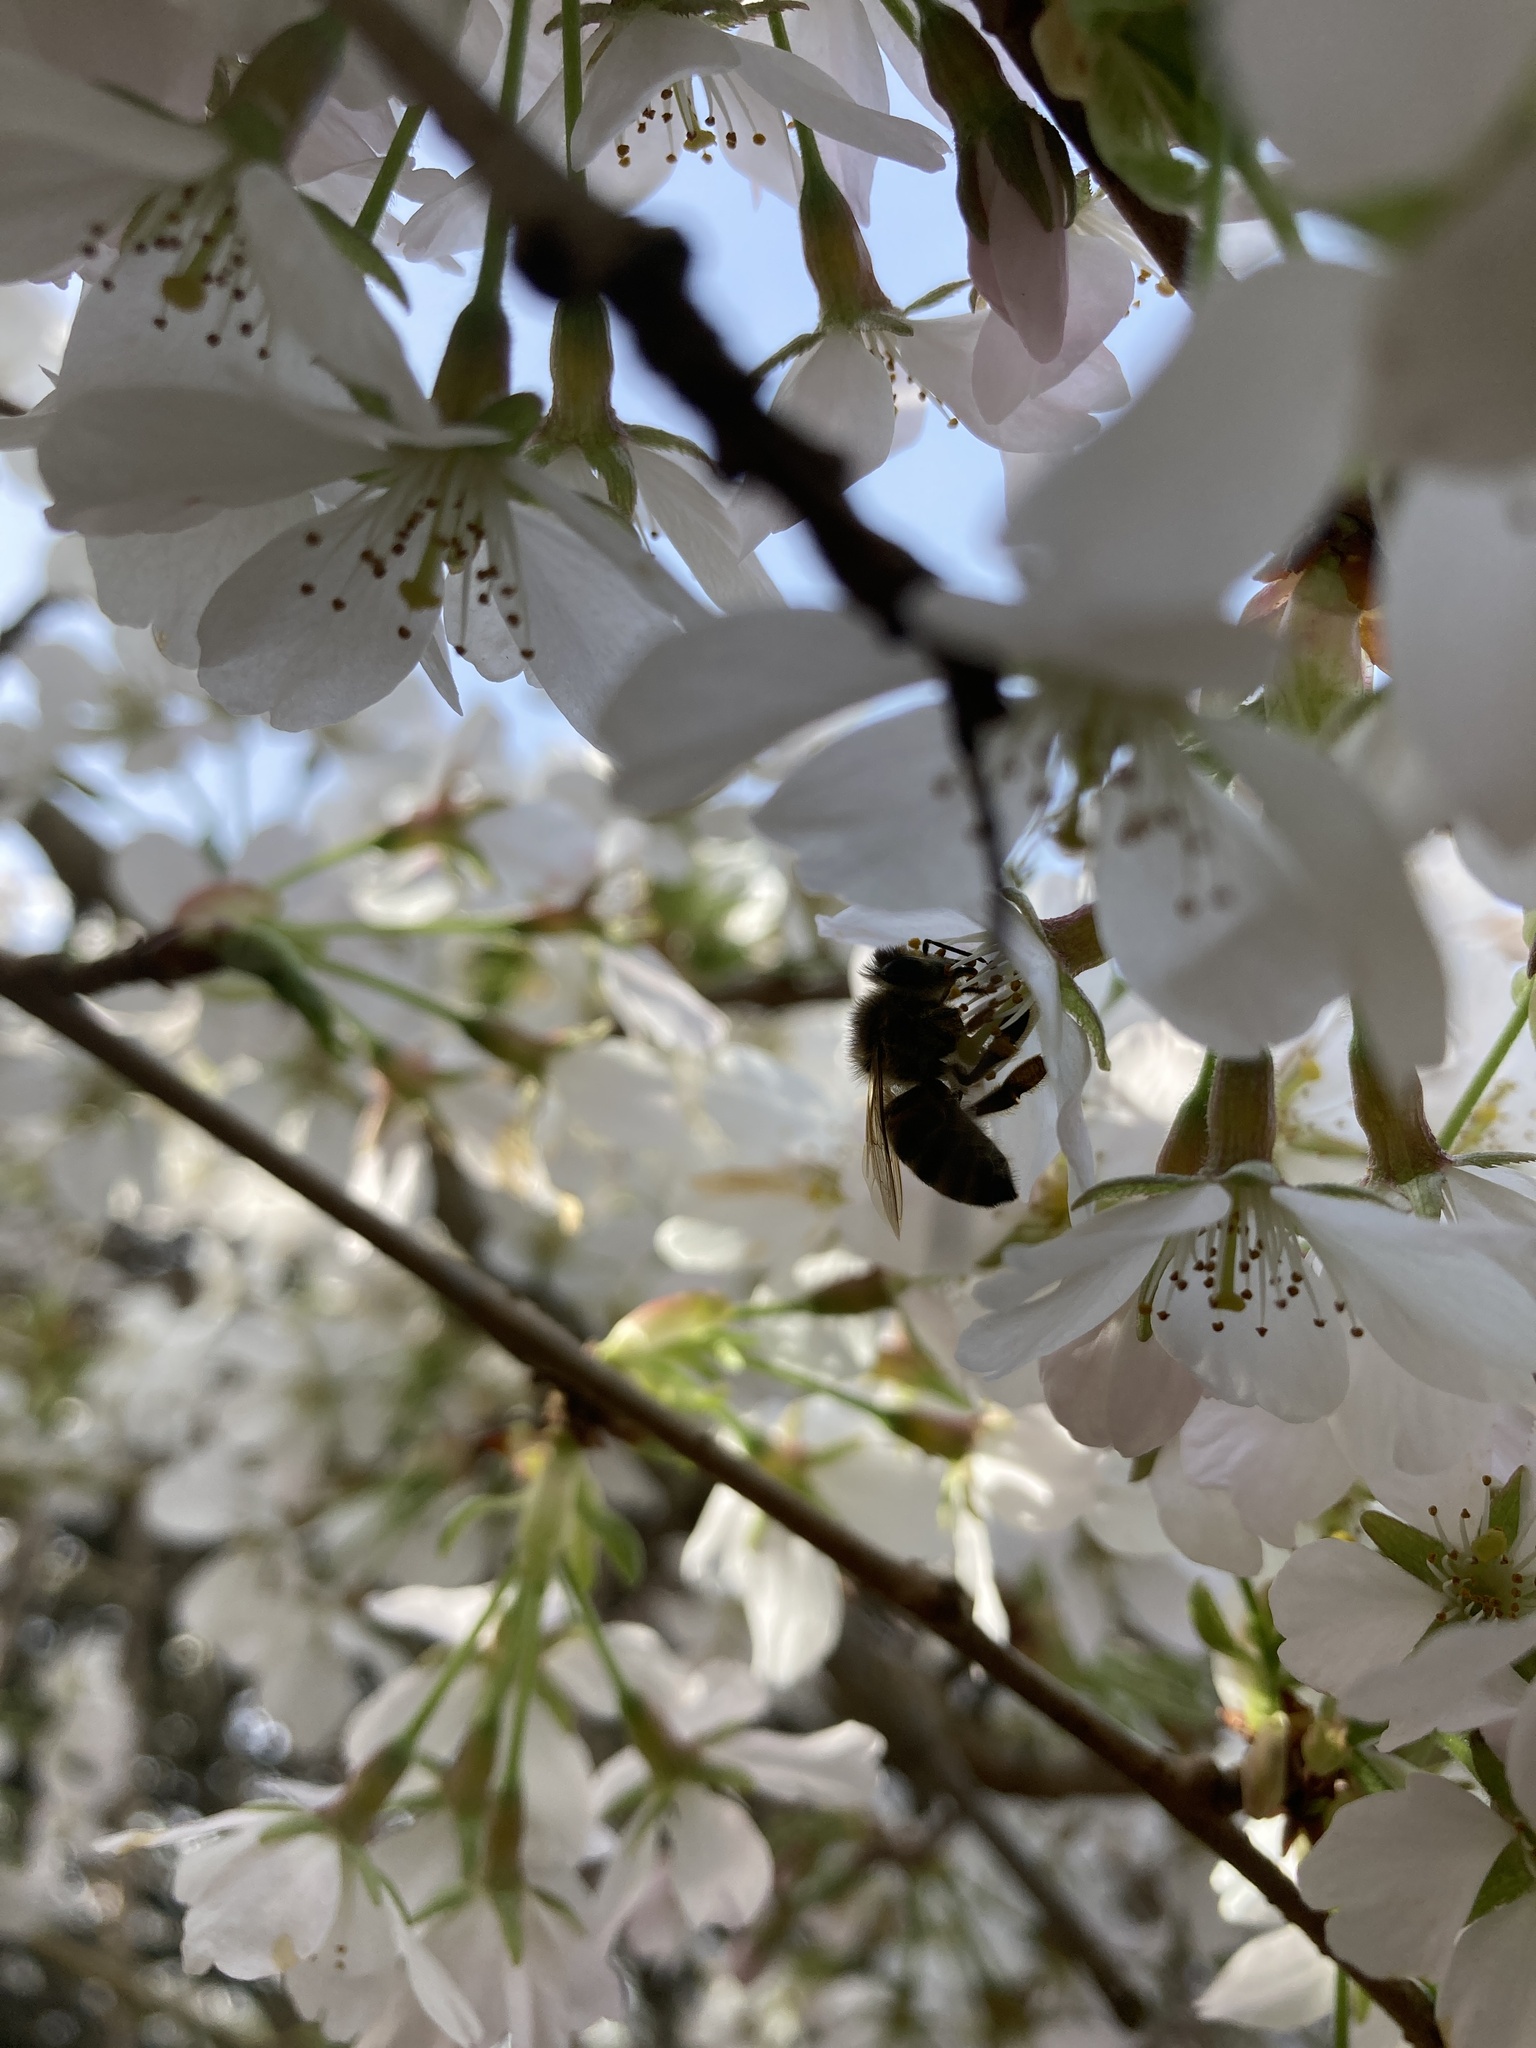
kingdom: Animalia
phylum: Arthropoda
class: Insecta
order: Hymenoptera
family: Apidae
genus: Apis
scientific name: Apis mellifera
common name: Honey bee
